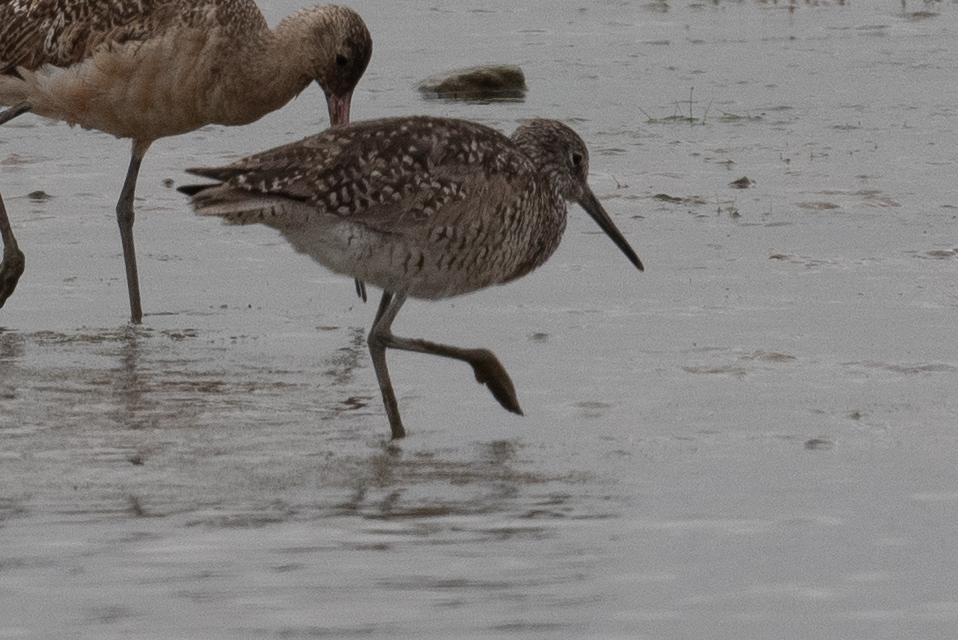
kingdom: Animalia
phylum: Chordata
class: Aves
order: Charadriiformes
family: Scolopacidae
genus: Tringa
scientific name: Tringa semipalmata
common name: Willet
